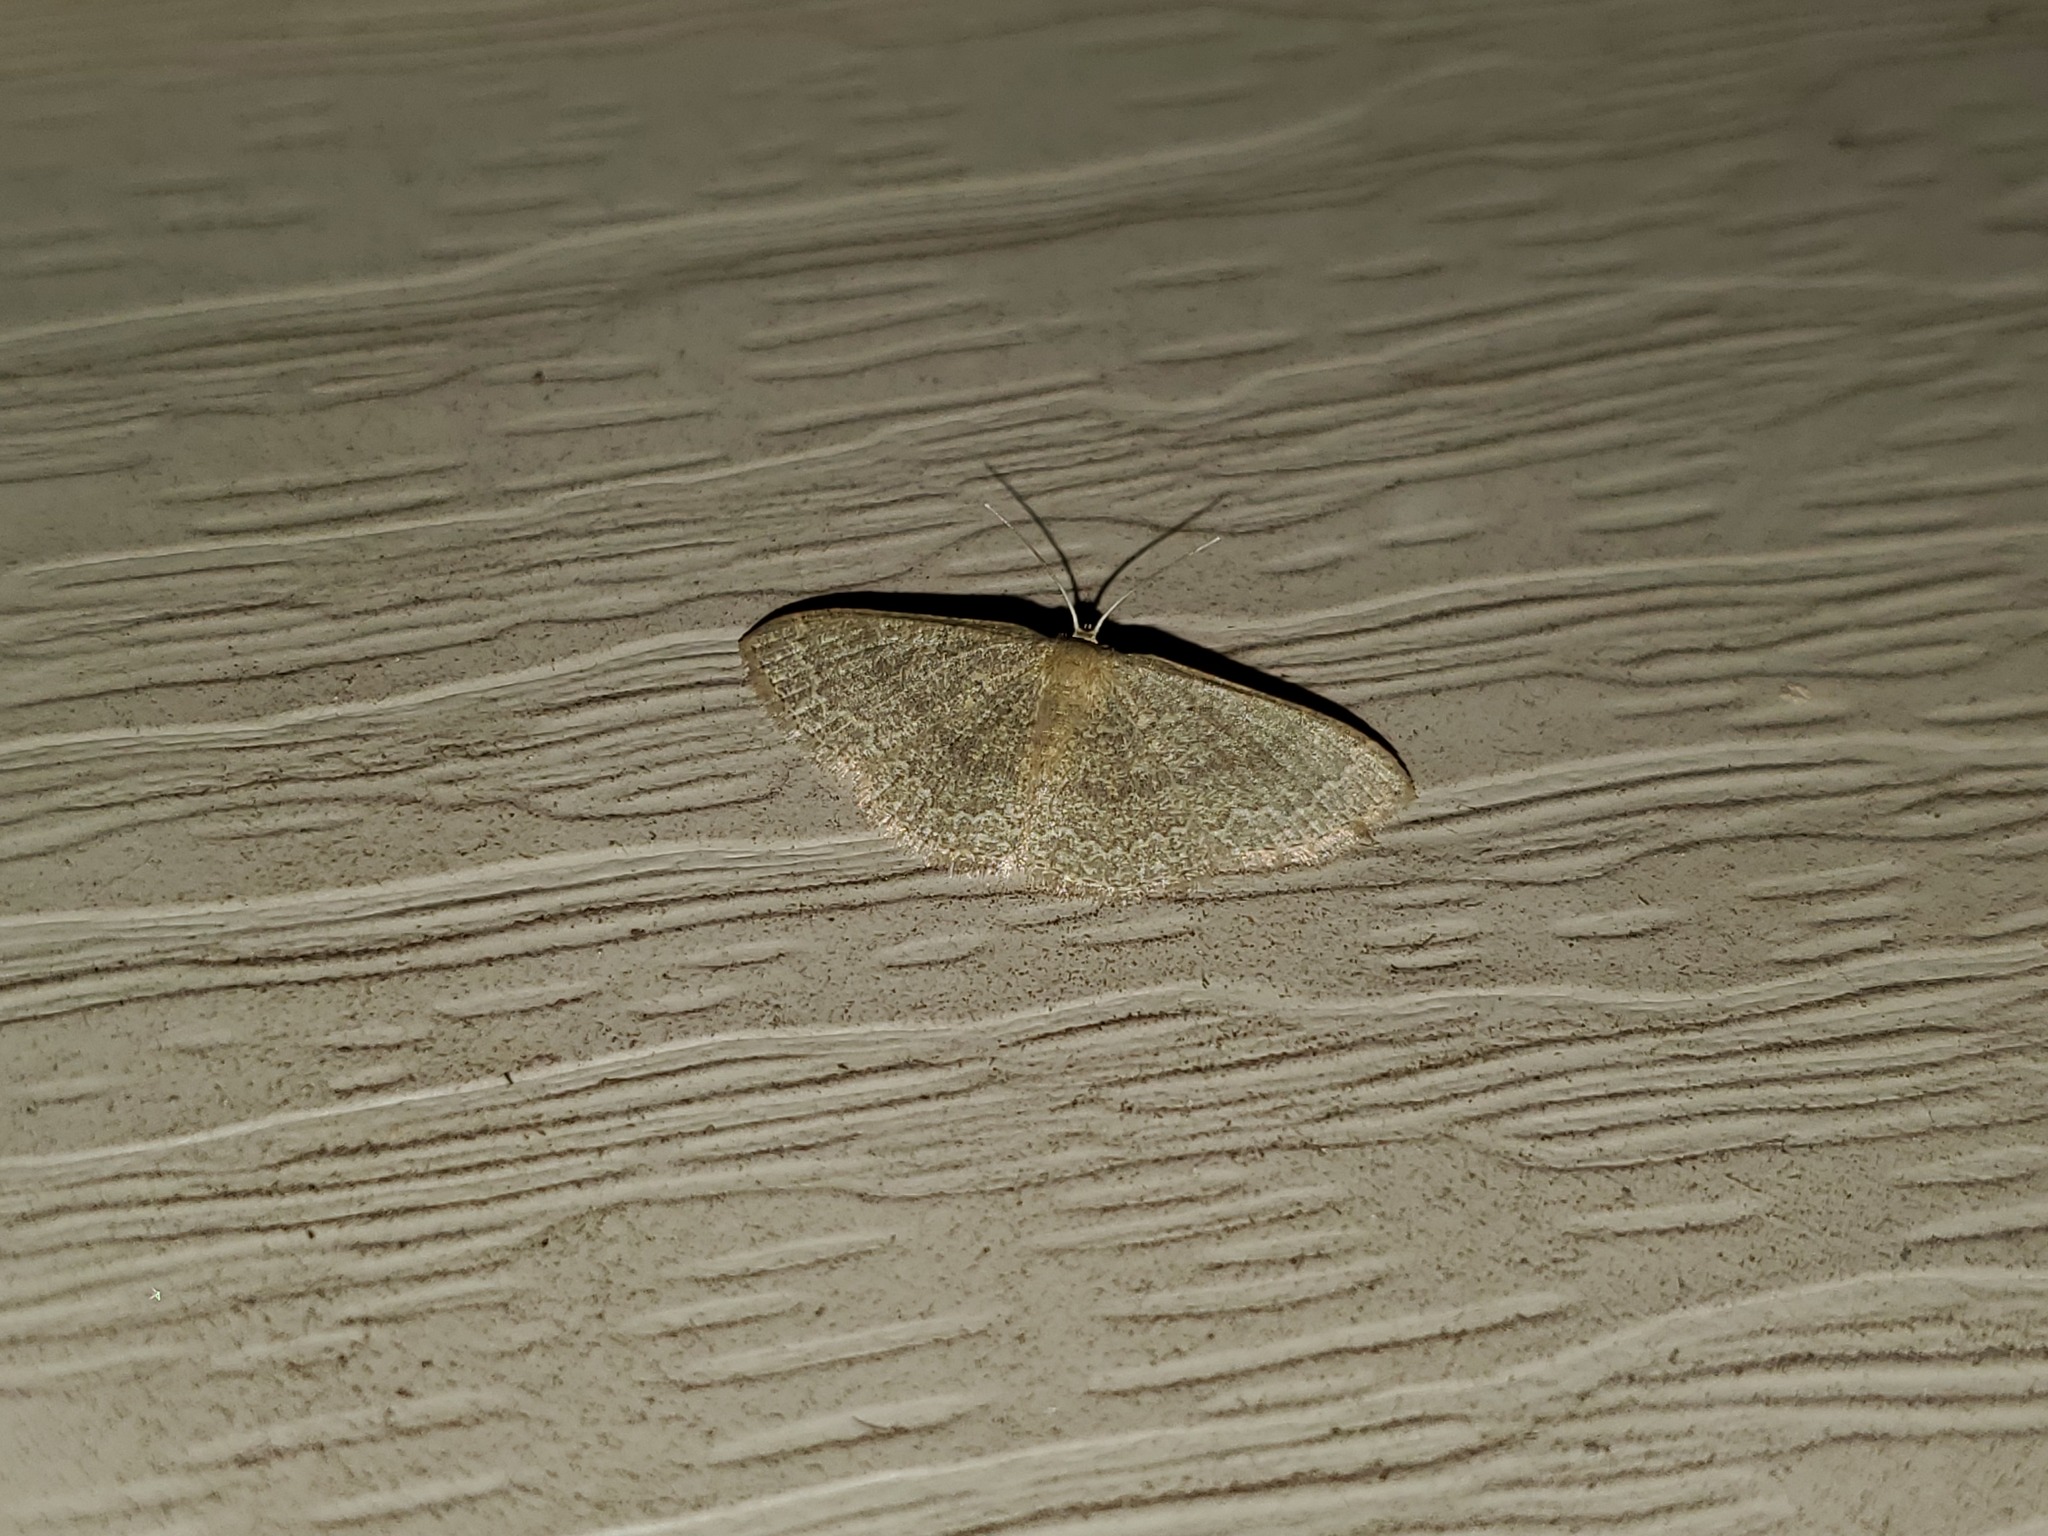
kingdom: Animalia
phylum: Arthropoda
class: Insecta
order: Lepidoptera
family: Geometridae
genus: Pleuroprucha
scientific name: Pleuroprucha insulsaria
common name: Common tan wave
